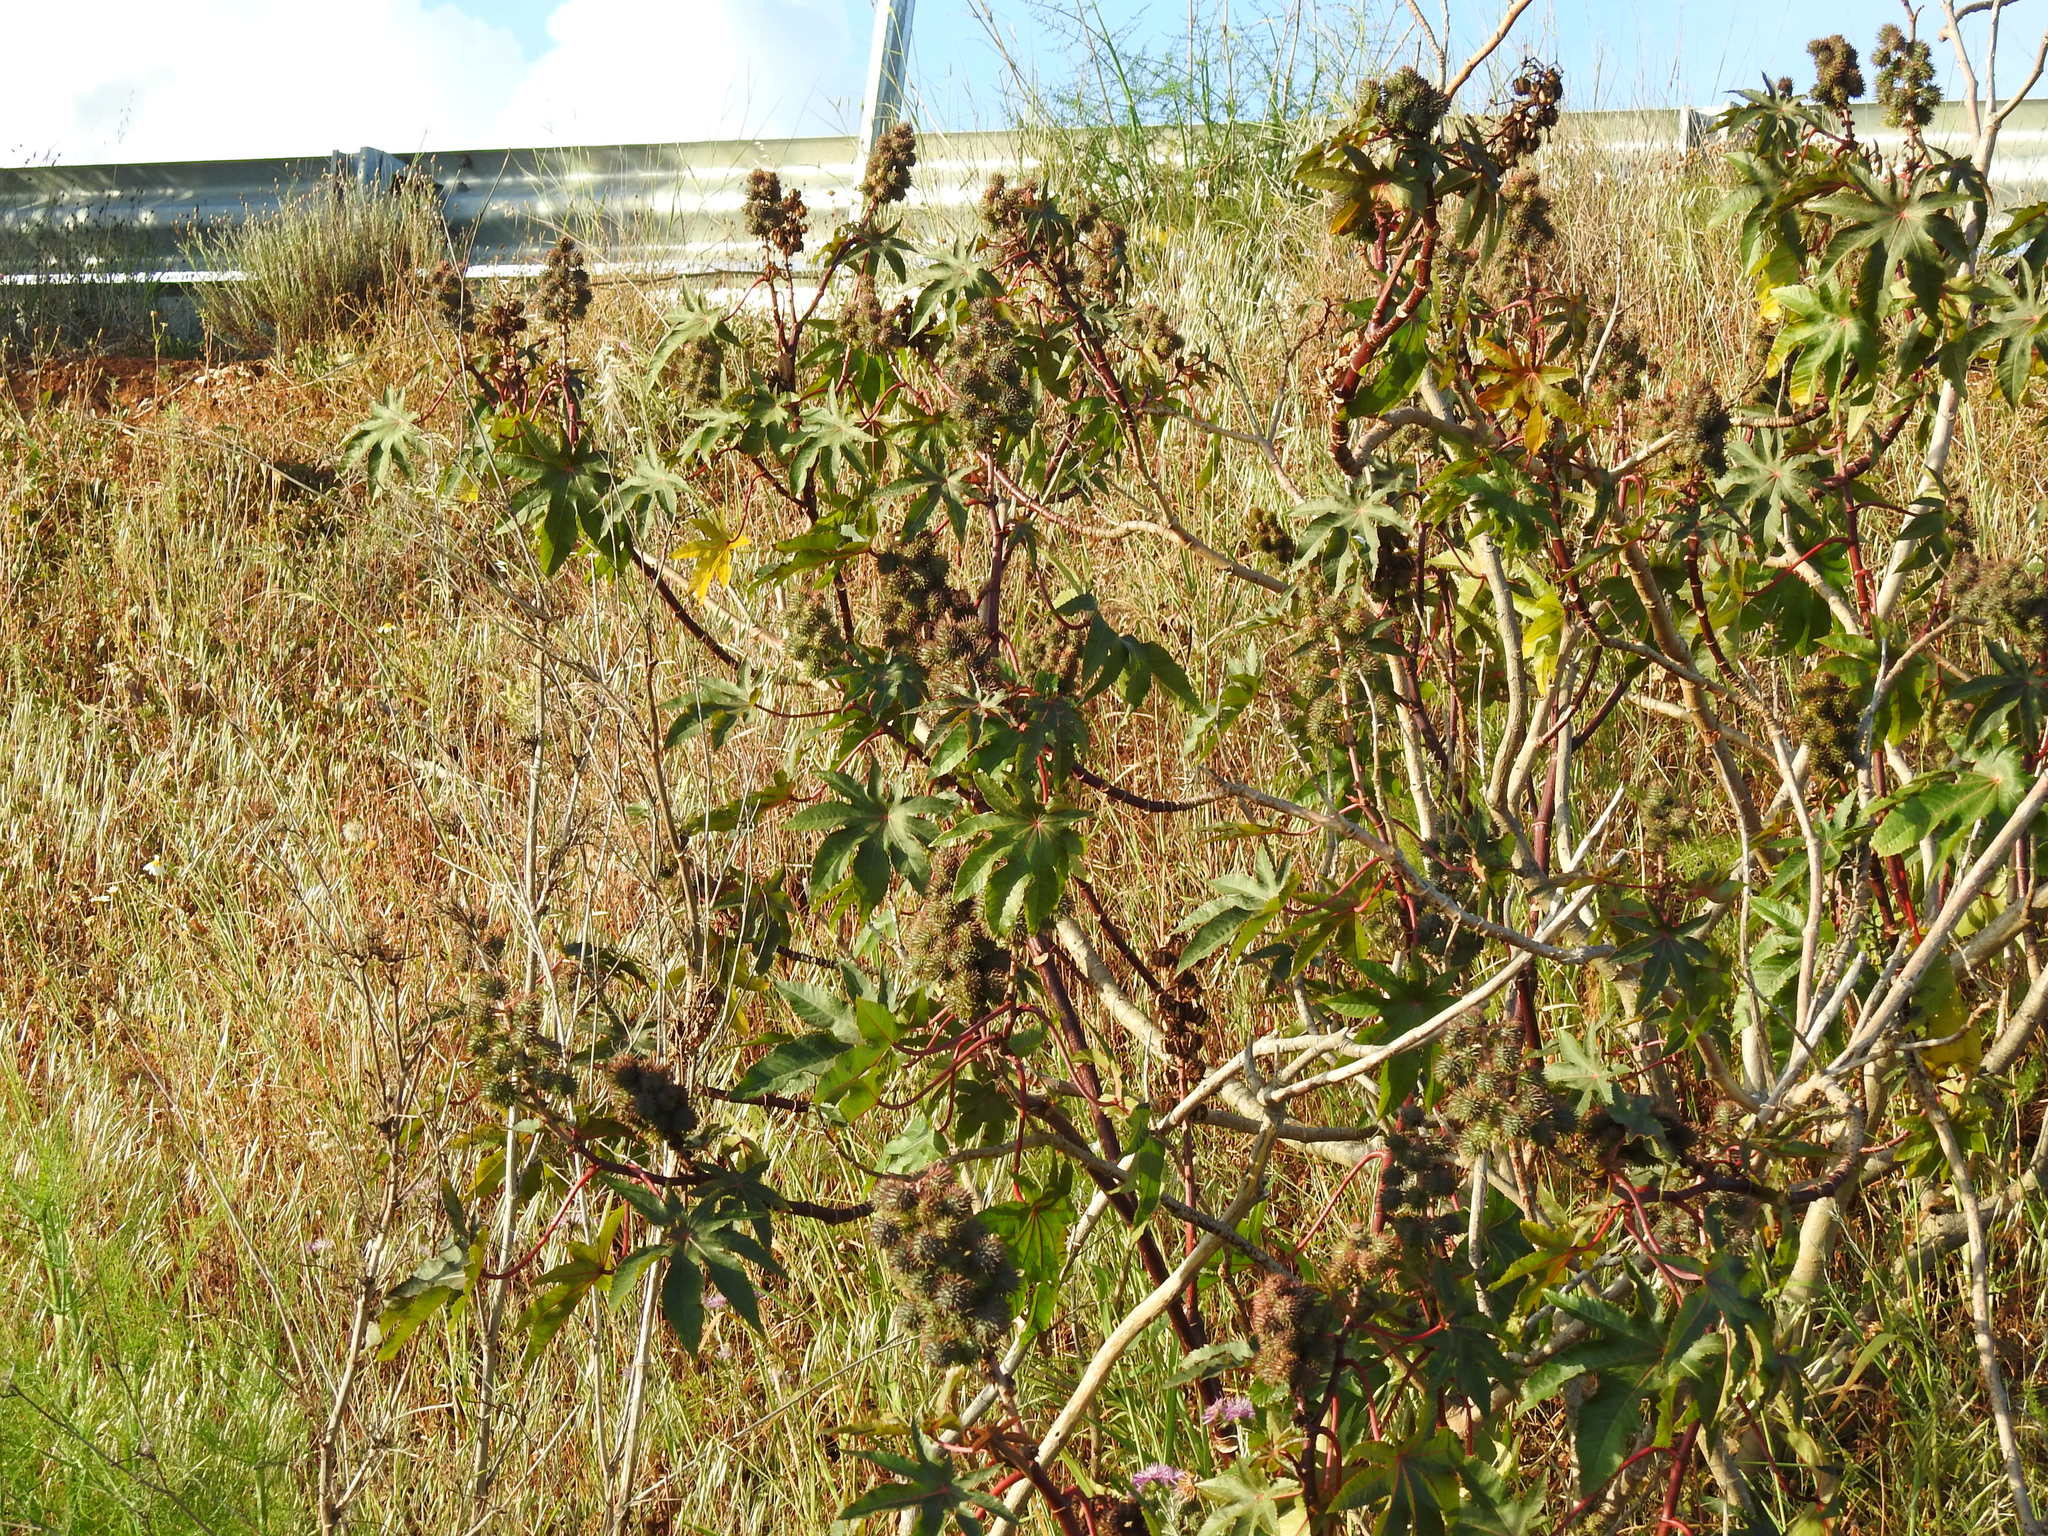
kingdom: Plantae
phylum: Tracheophyta
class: Magnoliopsida
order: Malpighiales
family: Euphorbiaceae
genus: Ricinus
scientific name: Ricinus communis
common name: Castor-oil-plant
